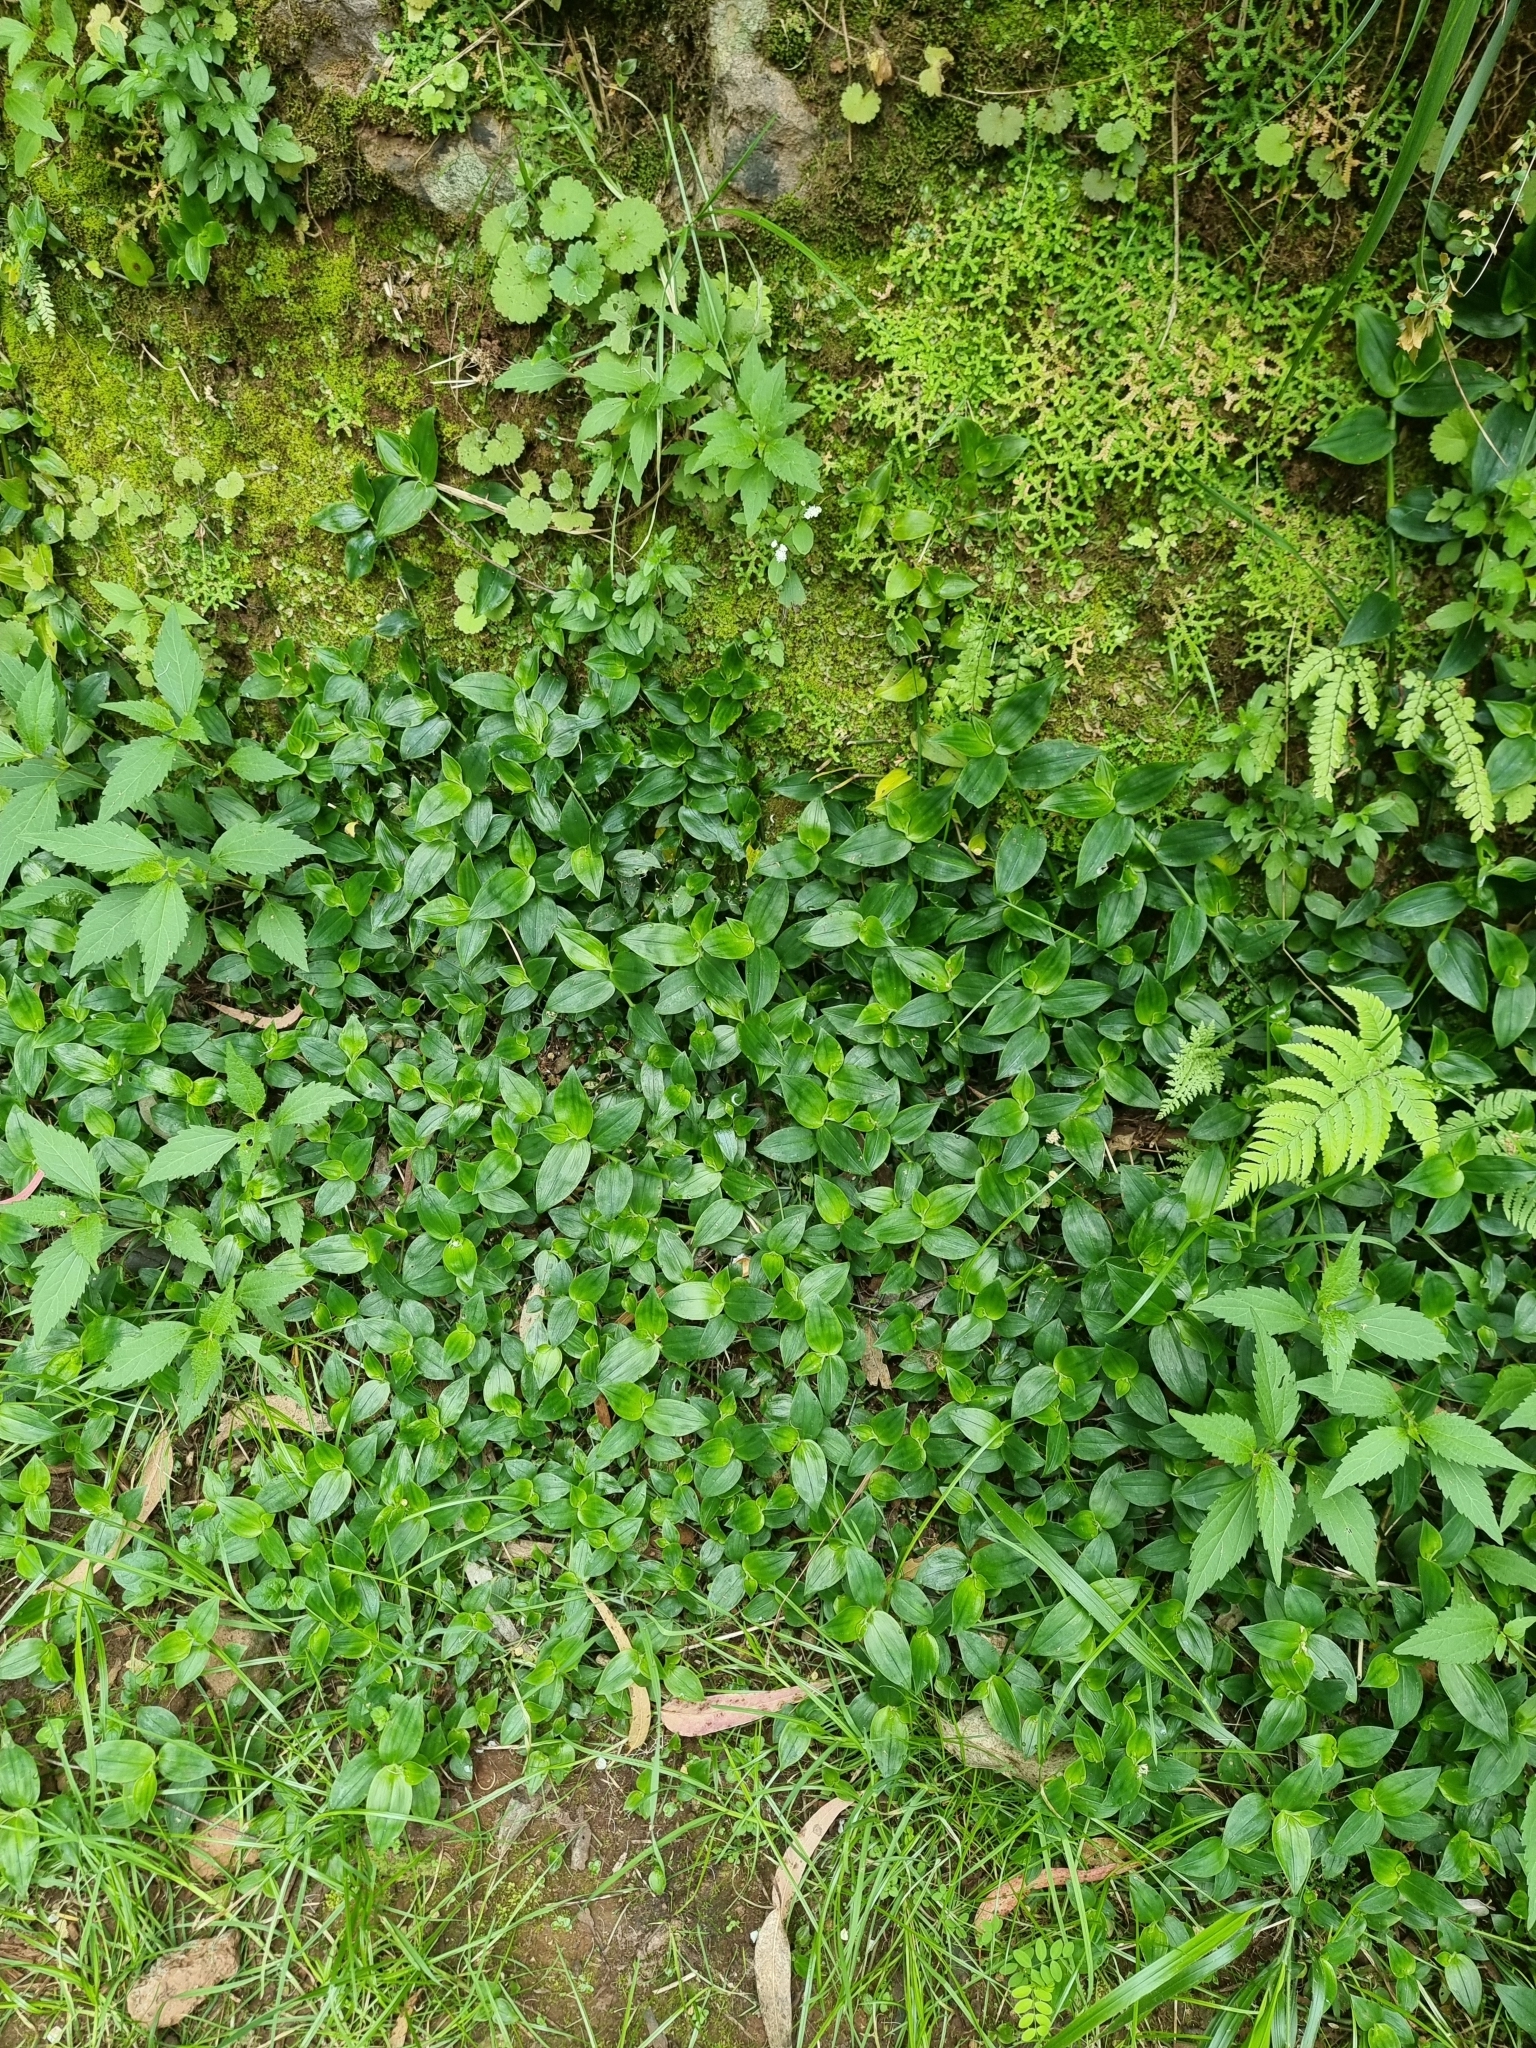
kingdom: Plantae
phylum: Tracheophyta
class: Liliopsida
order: Commelinales
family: Commelinaceae
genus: Tradescantia
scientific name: Tradescantia fluminensis
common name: Wandering-jew
